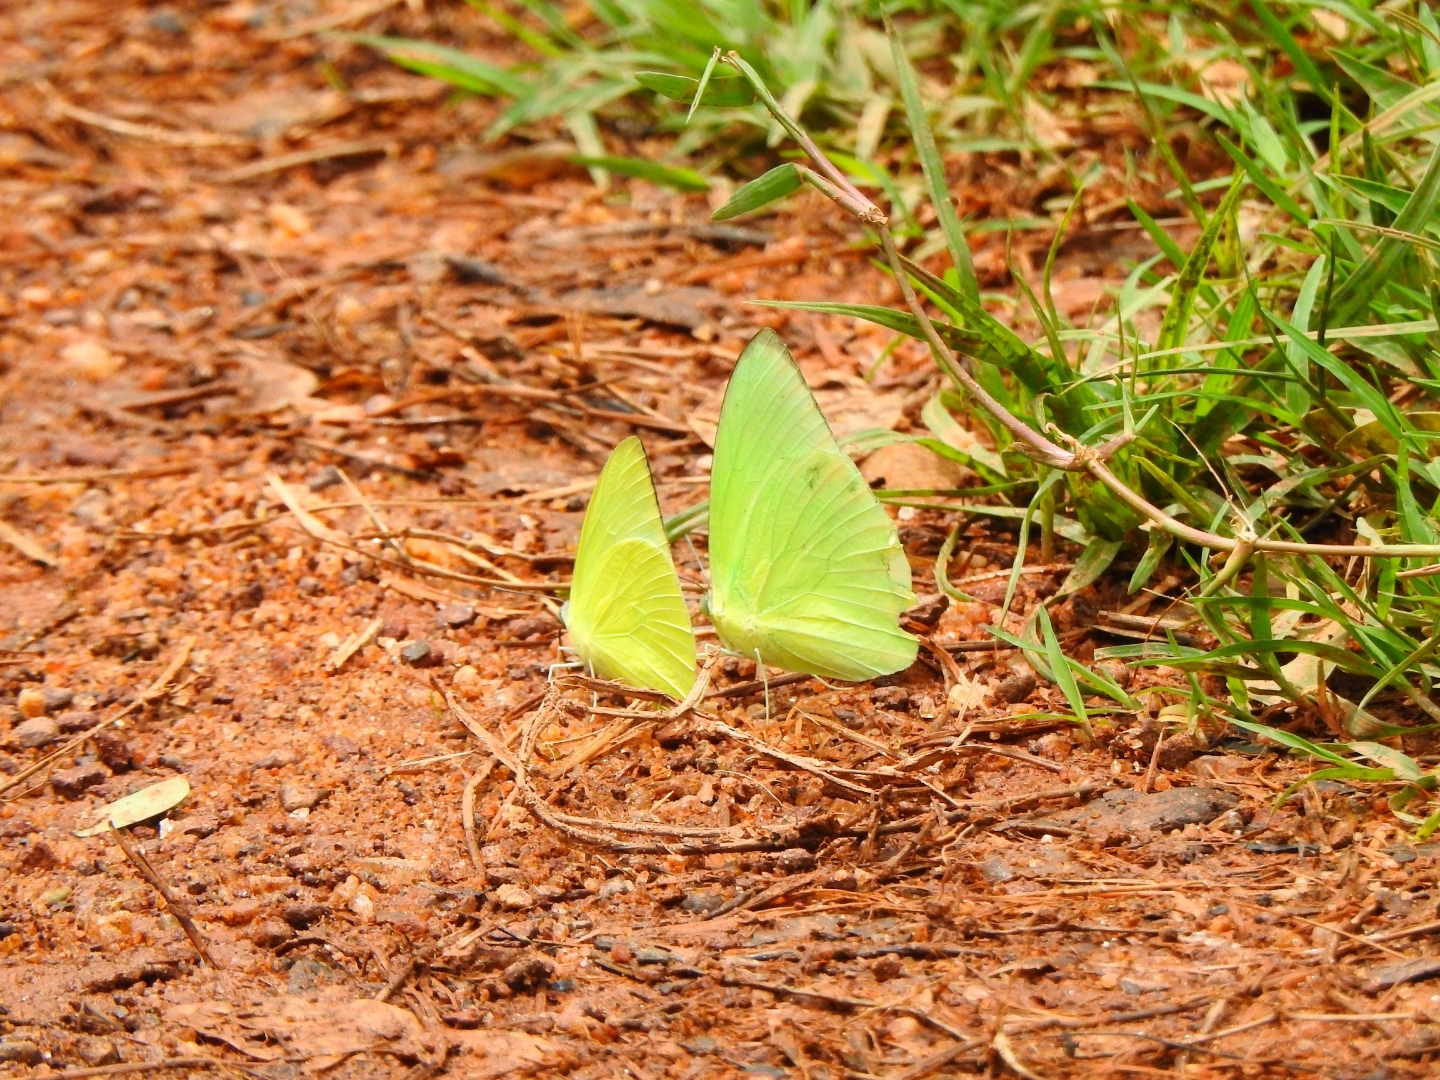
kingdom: Animalia
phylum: Arthropoda
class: Insecta
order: Lepidoptera
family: Pieridae
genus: Catopsilia
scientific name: Catopsilia pomona
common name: Common emigrant
